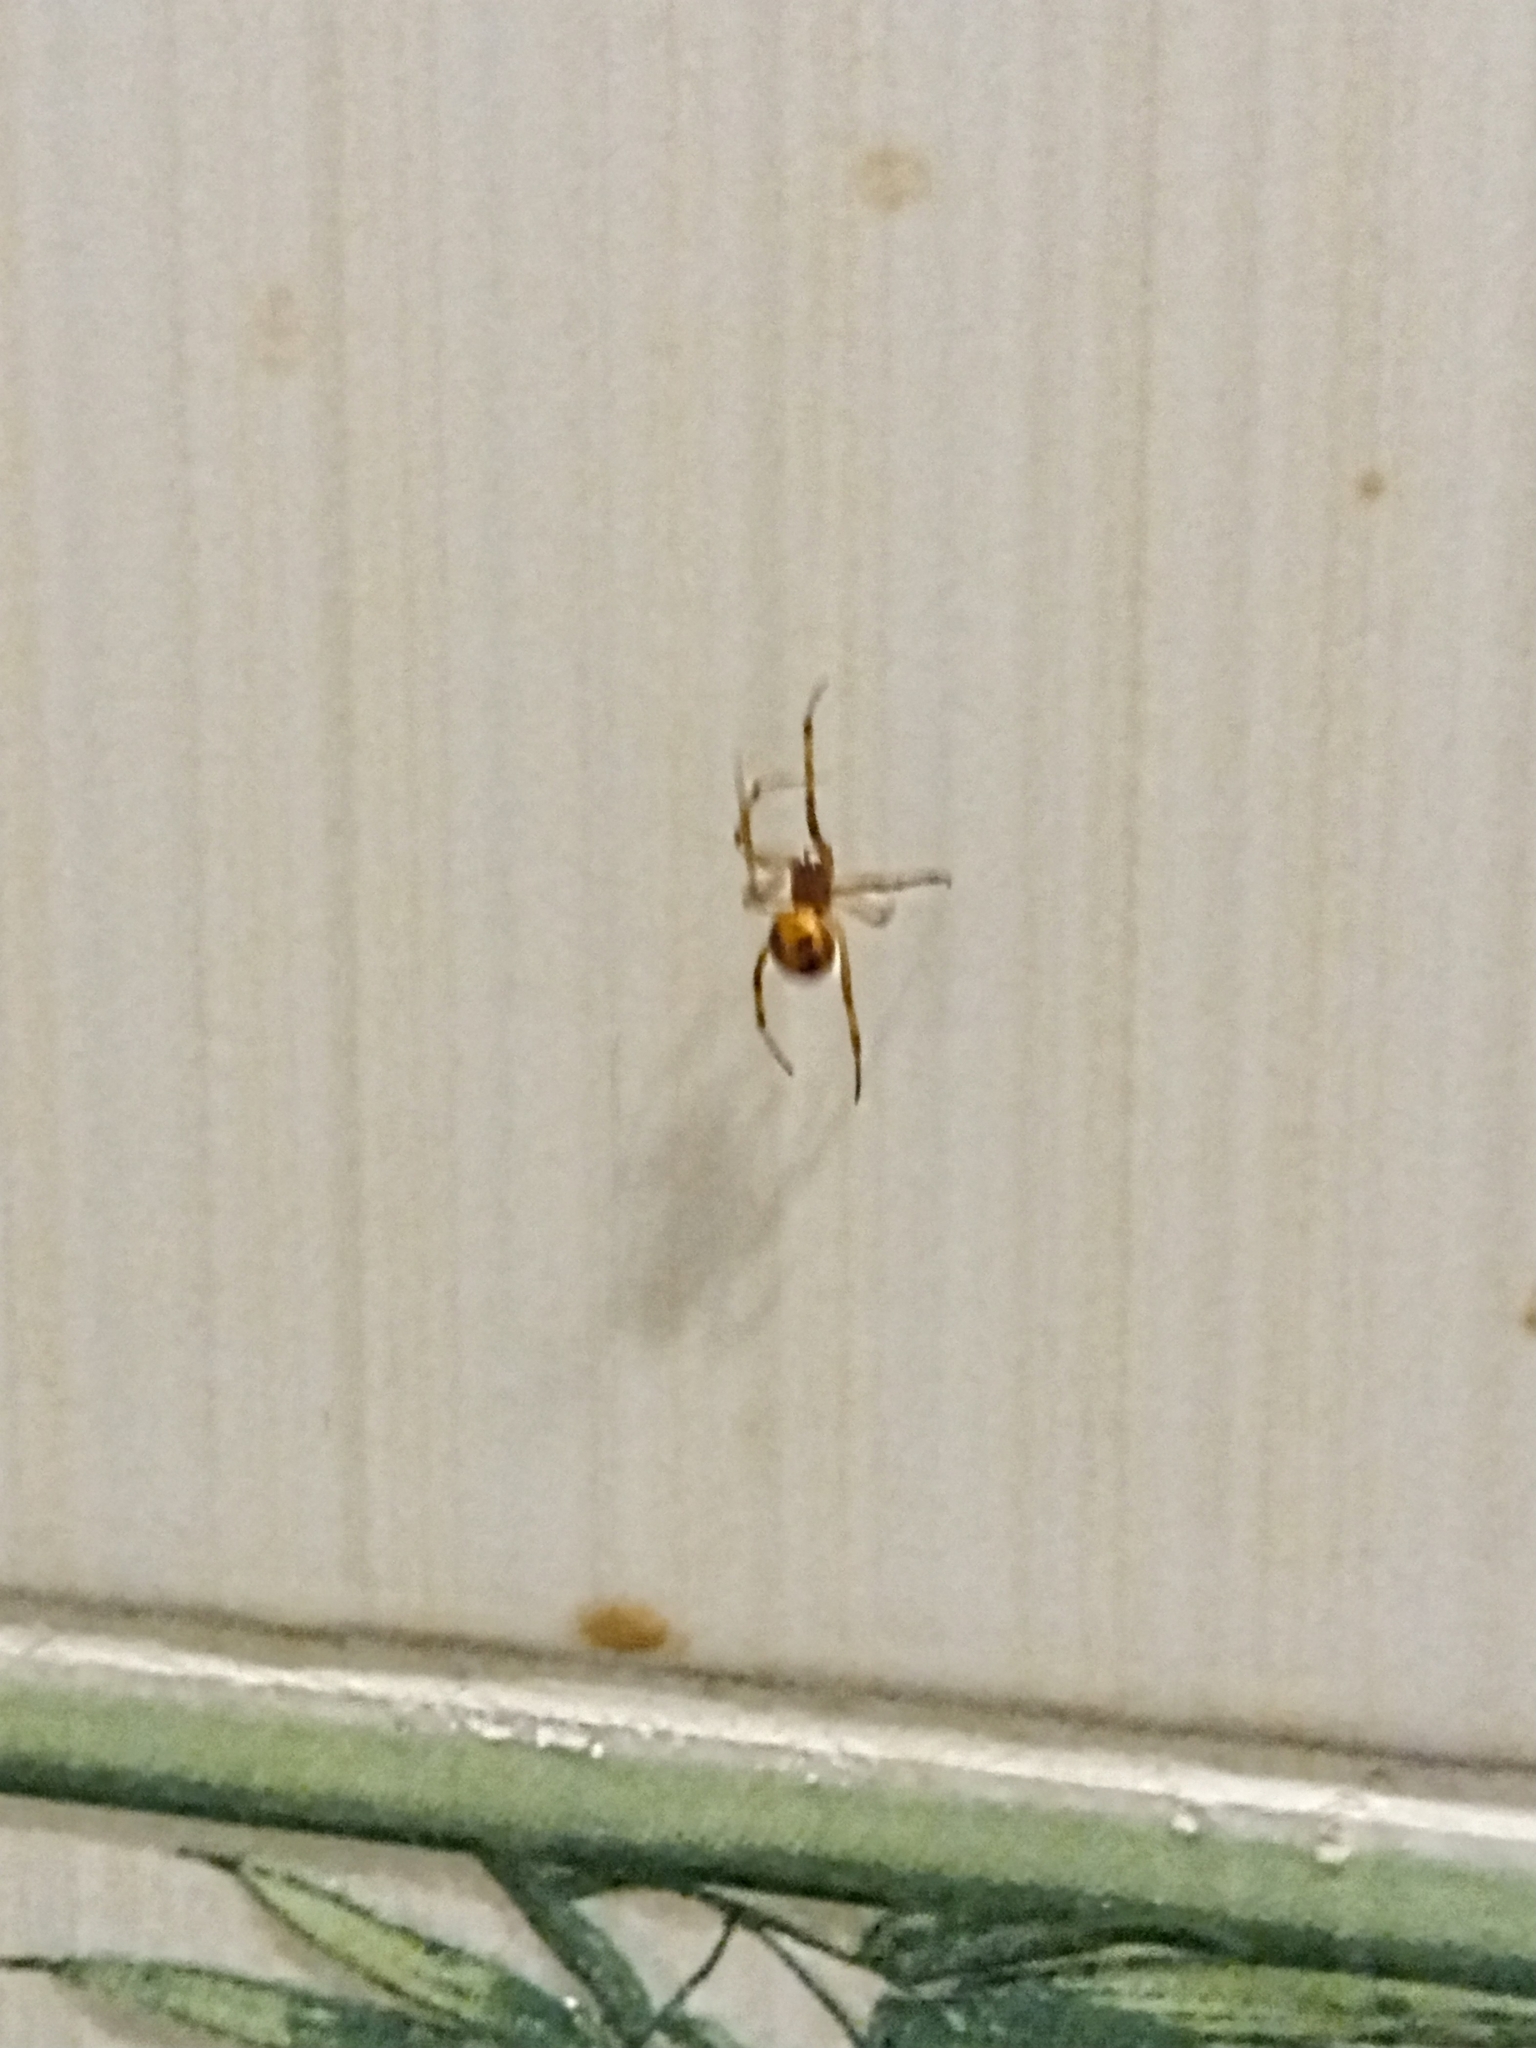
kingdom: Animalia
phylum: Arthropoda
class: Arachnida
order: Araneae
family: Theridiidae
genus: Steatoda
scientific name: Steatoda triangulosa
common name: Triangulate bud spider
